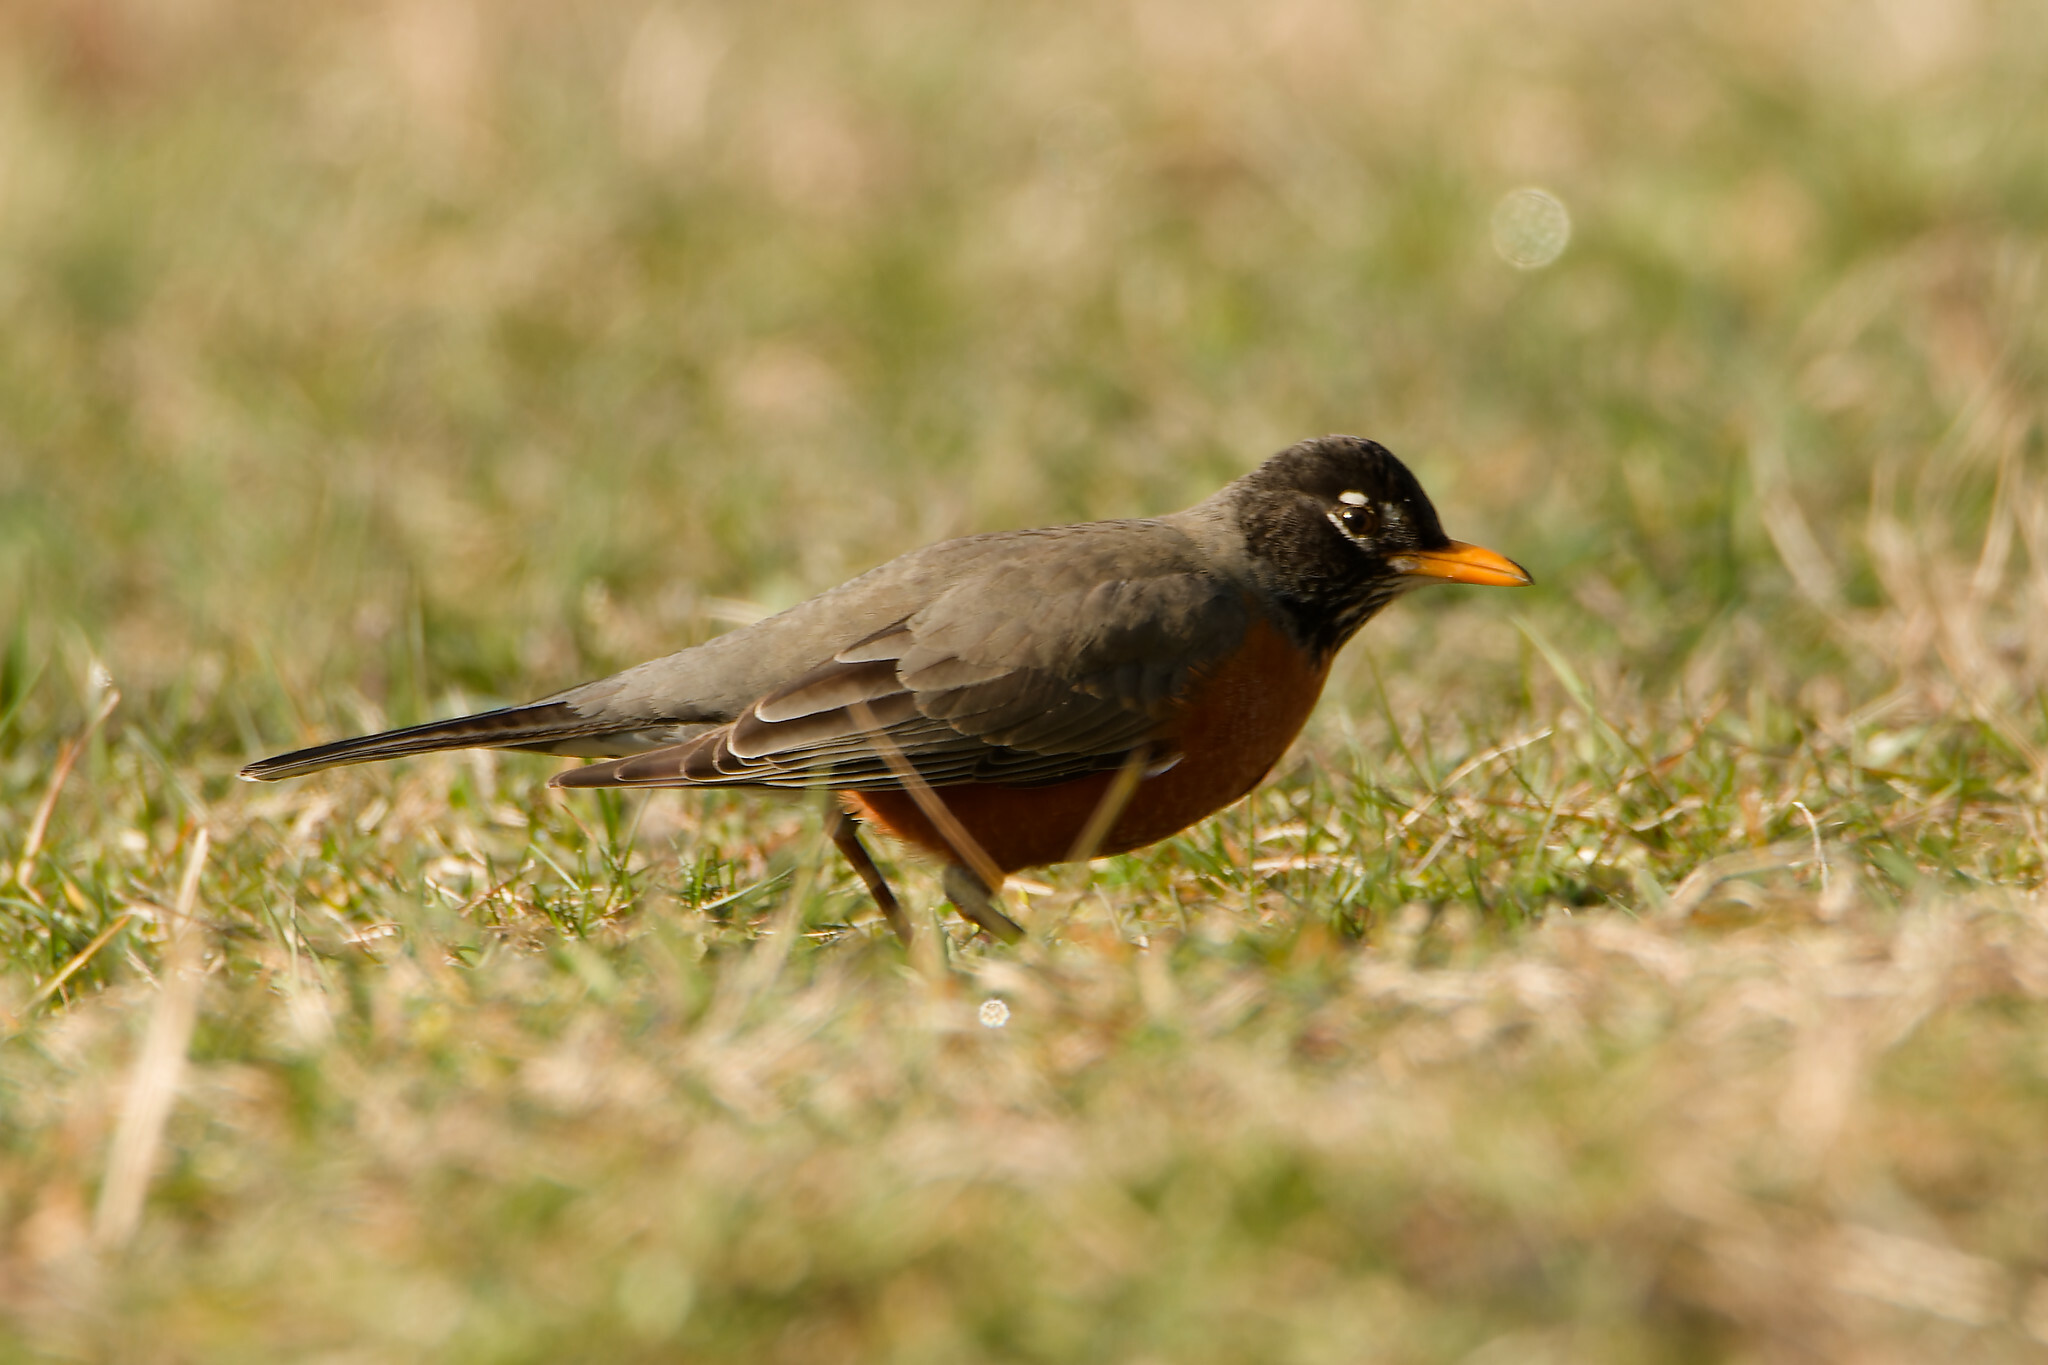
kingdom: Animalia
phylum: Chordata
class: Aves
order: Passeriformes
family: Turdidae
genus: Turdus
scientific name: Turdus migratorius
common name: American robin
